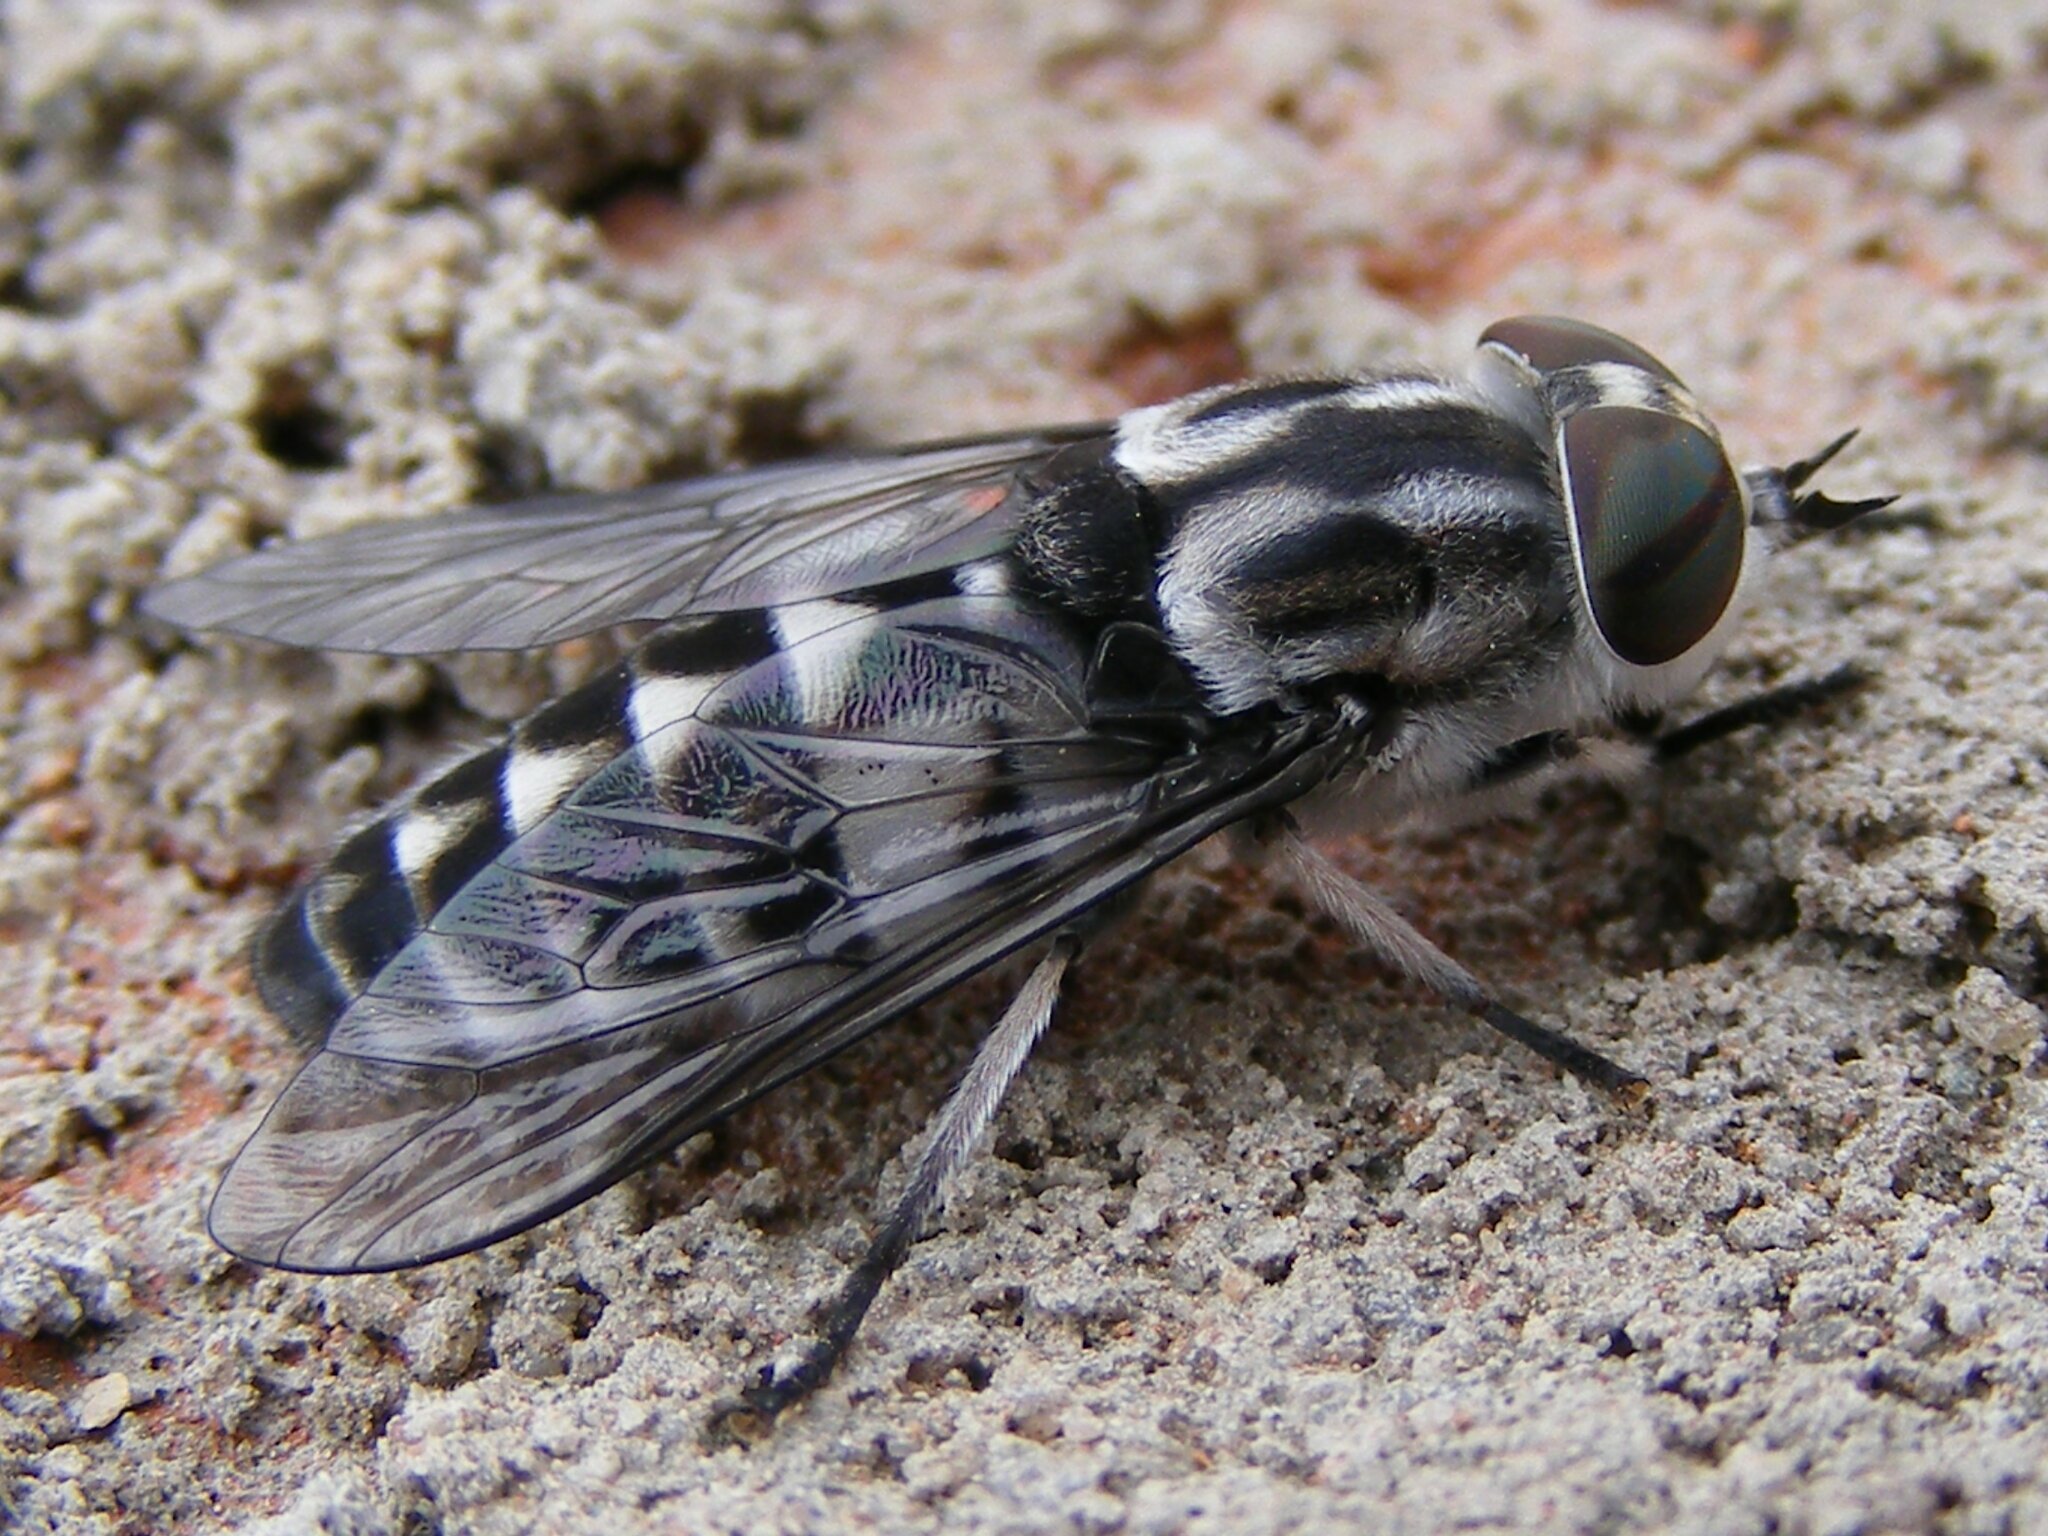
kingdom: Animalia
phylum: Arthropoda
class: Insecta
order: Diptera
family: Tabanidae
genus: Tabanus
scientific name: Tabanus atrimanus
